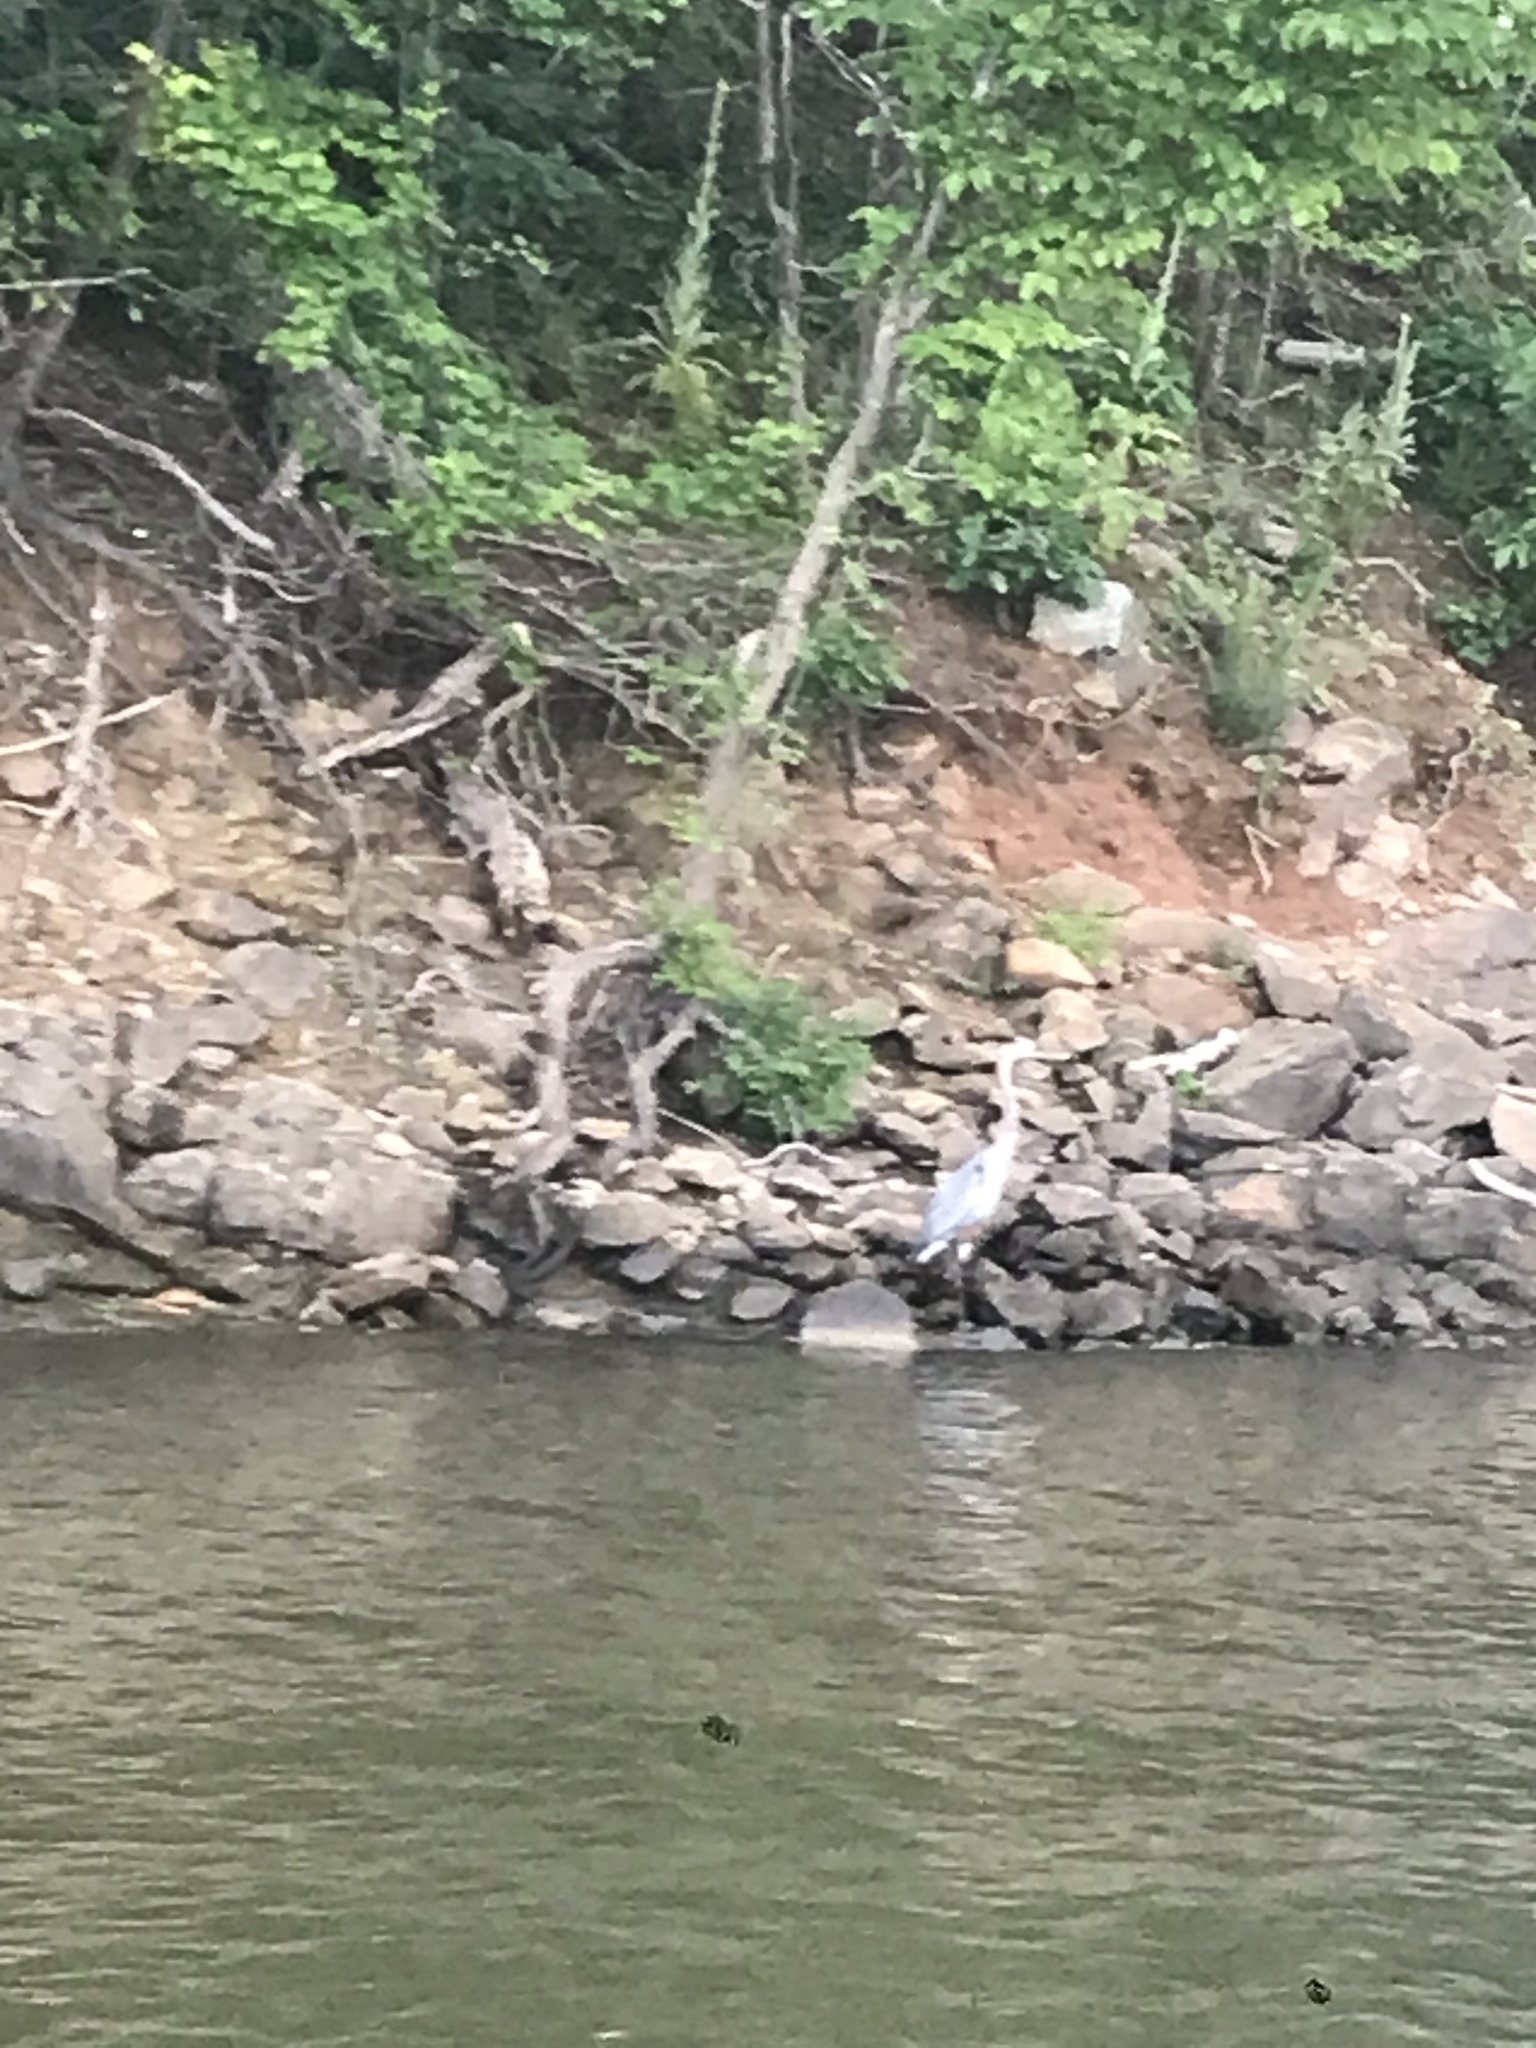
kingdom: Animalia
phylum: Chordata
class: Aves
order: Pelecaniformes
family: Ardeidae
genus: Ardea
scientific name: Ardea herodias
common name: Great blue heron
